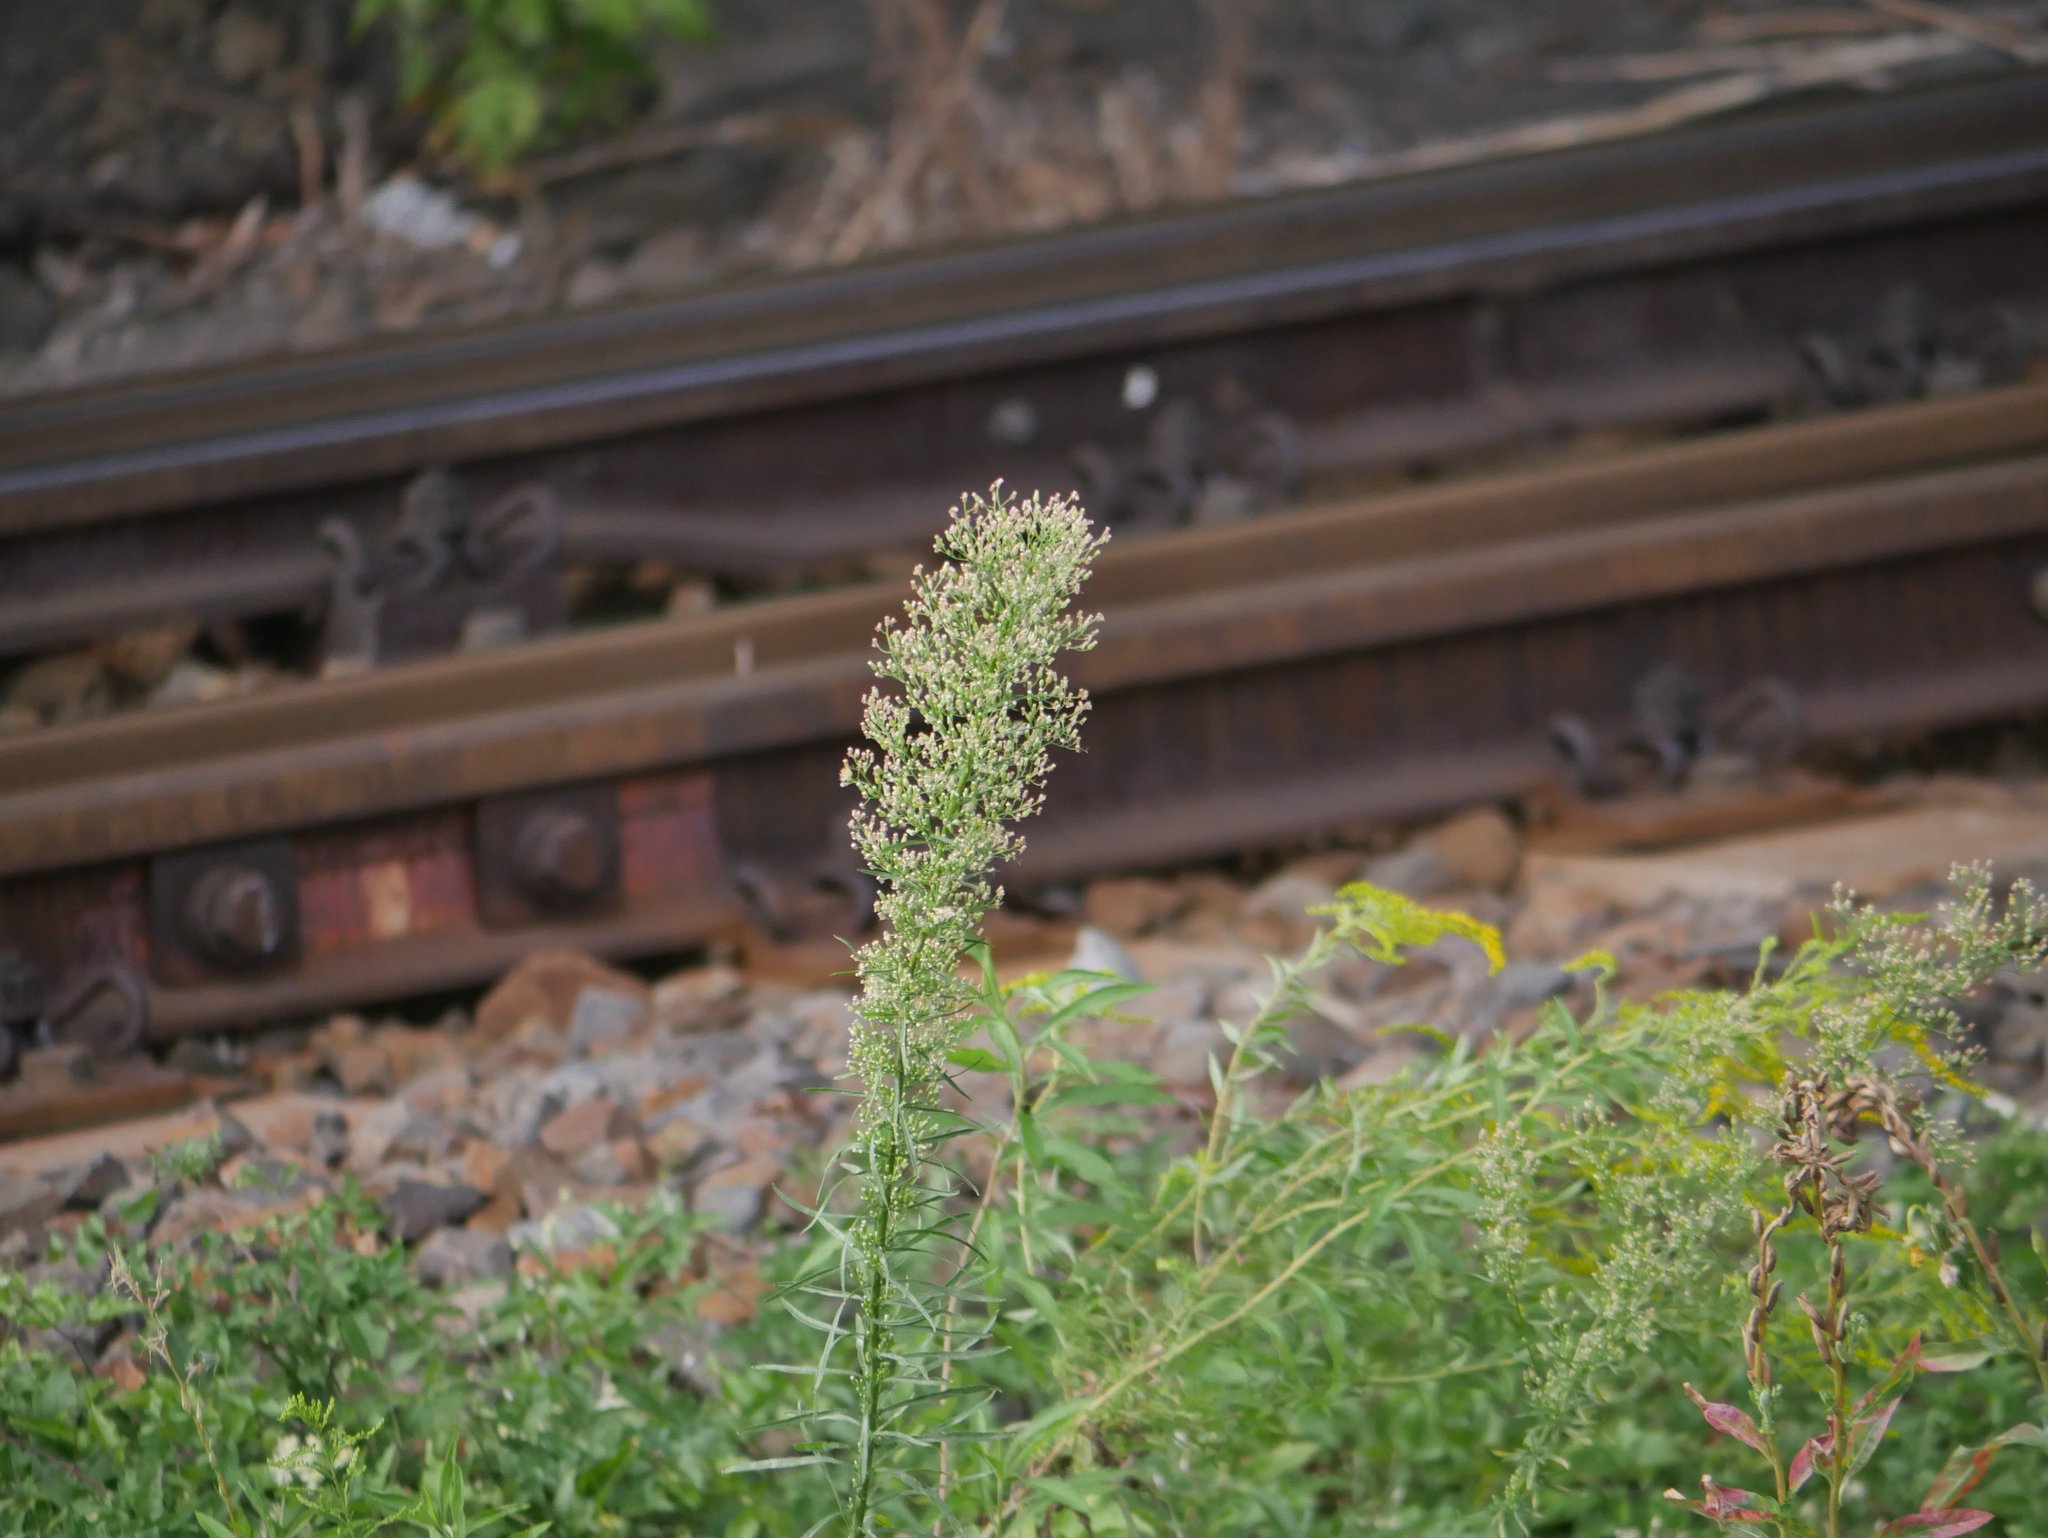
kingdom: Plantae
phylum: Tracheophyta
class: Magnoliopsida
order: Asterales
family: Asteraceae
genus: Erigeron
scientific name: Erigeron canadensis
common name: Canadian fleabane
